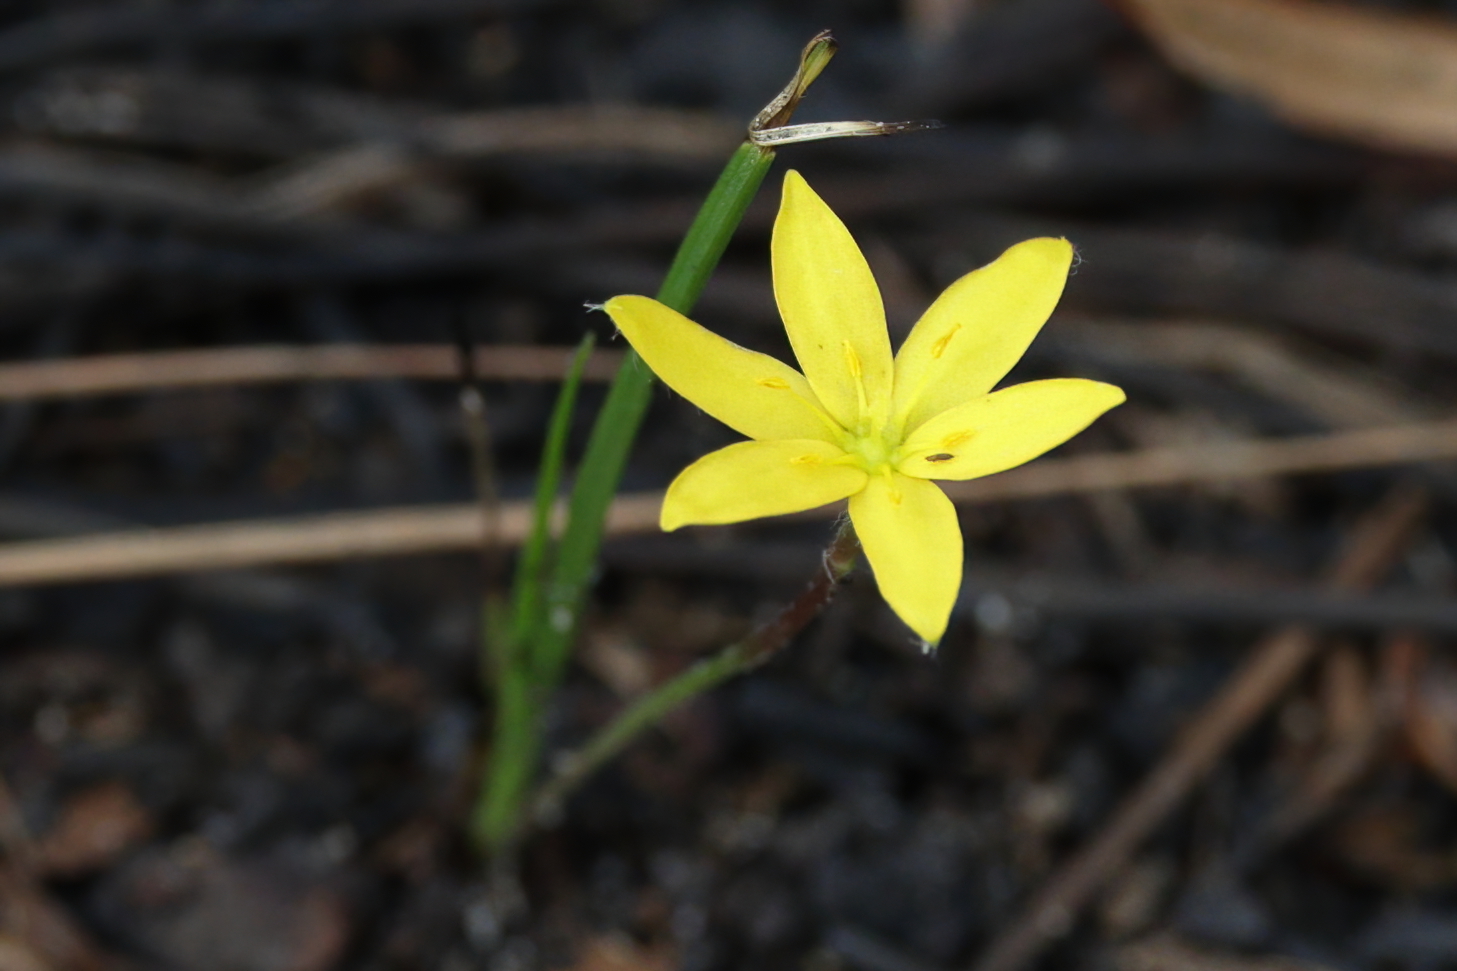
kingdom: Plantae
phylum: Tracheophyta
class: Liliopsida
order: Asparagales
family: Hypoxidaceae
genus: Hypoxis
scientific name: Hypoxis juncea
